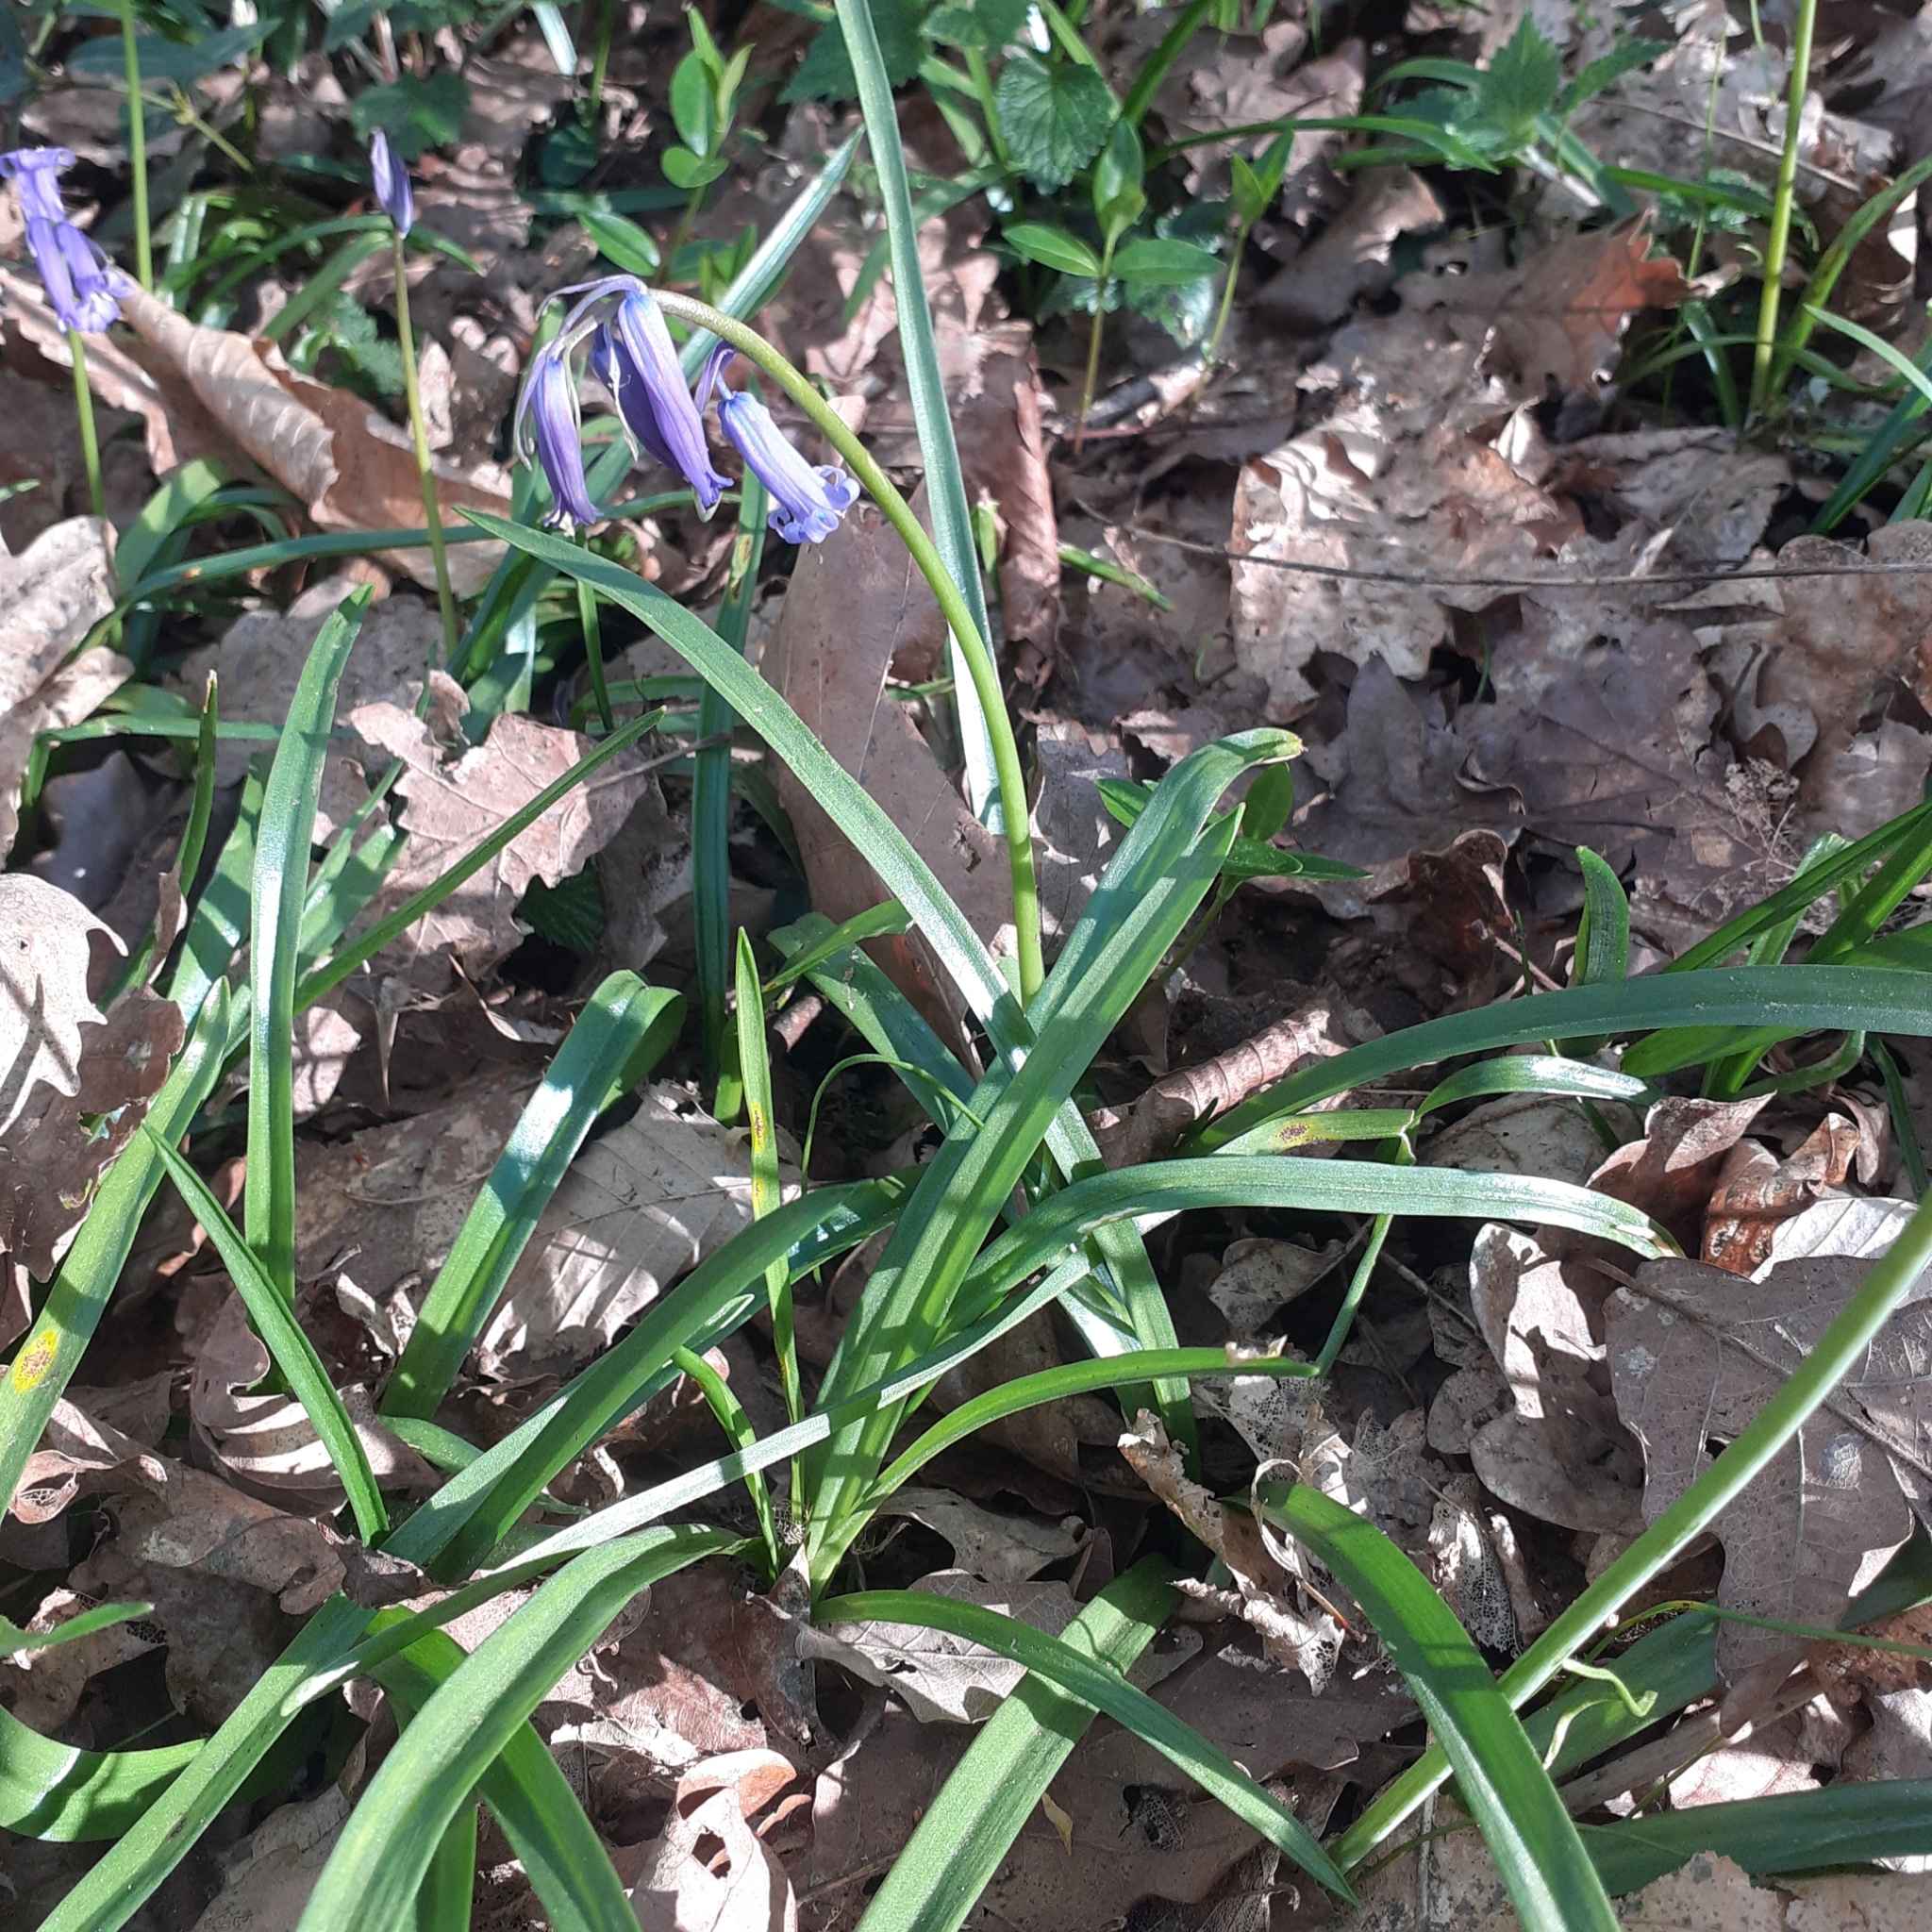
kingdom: Plantae
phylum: Tracheophyta
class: Liliopsida
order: Asparagales
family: Asparagaceae
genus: Hyacinthoides
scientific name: Hyacinthoides non-scripta
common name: Bluebell
